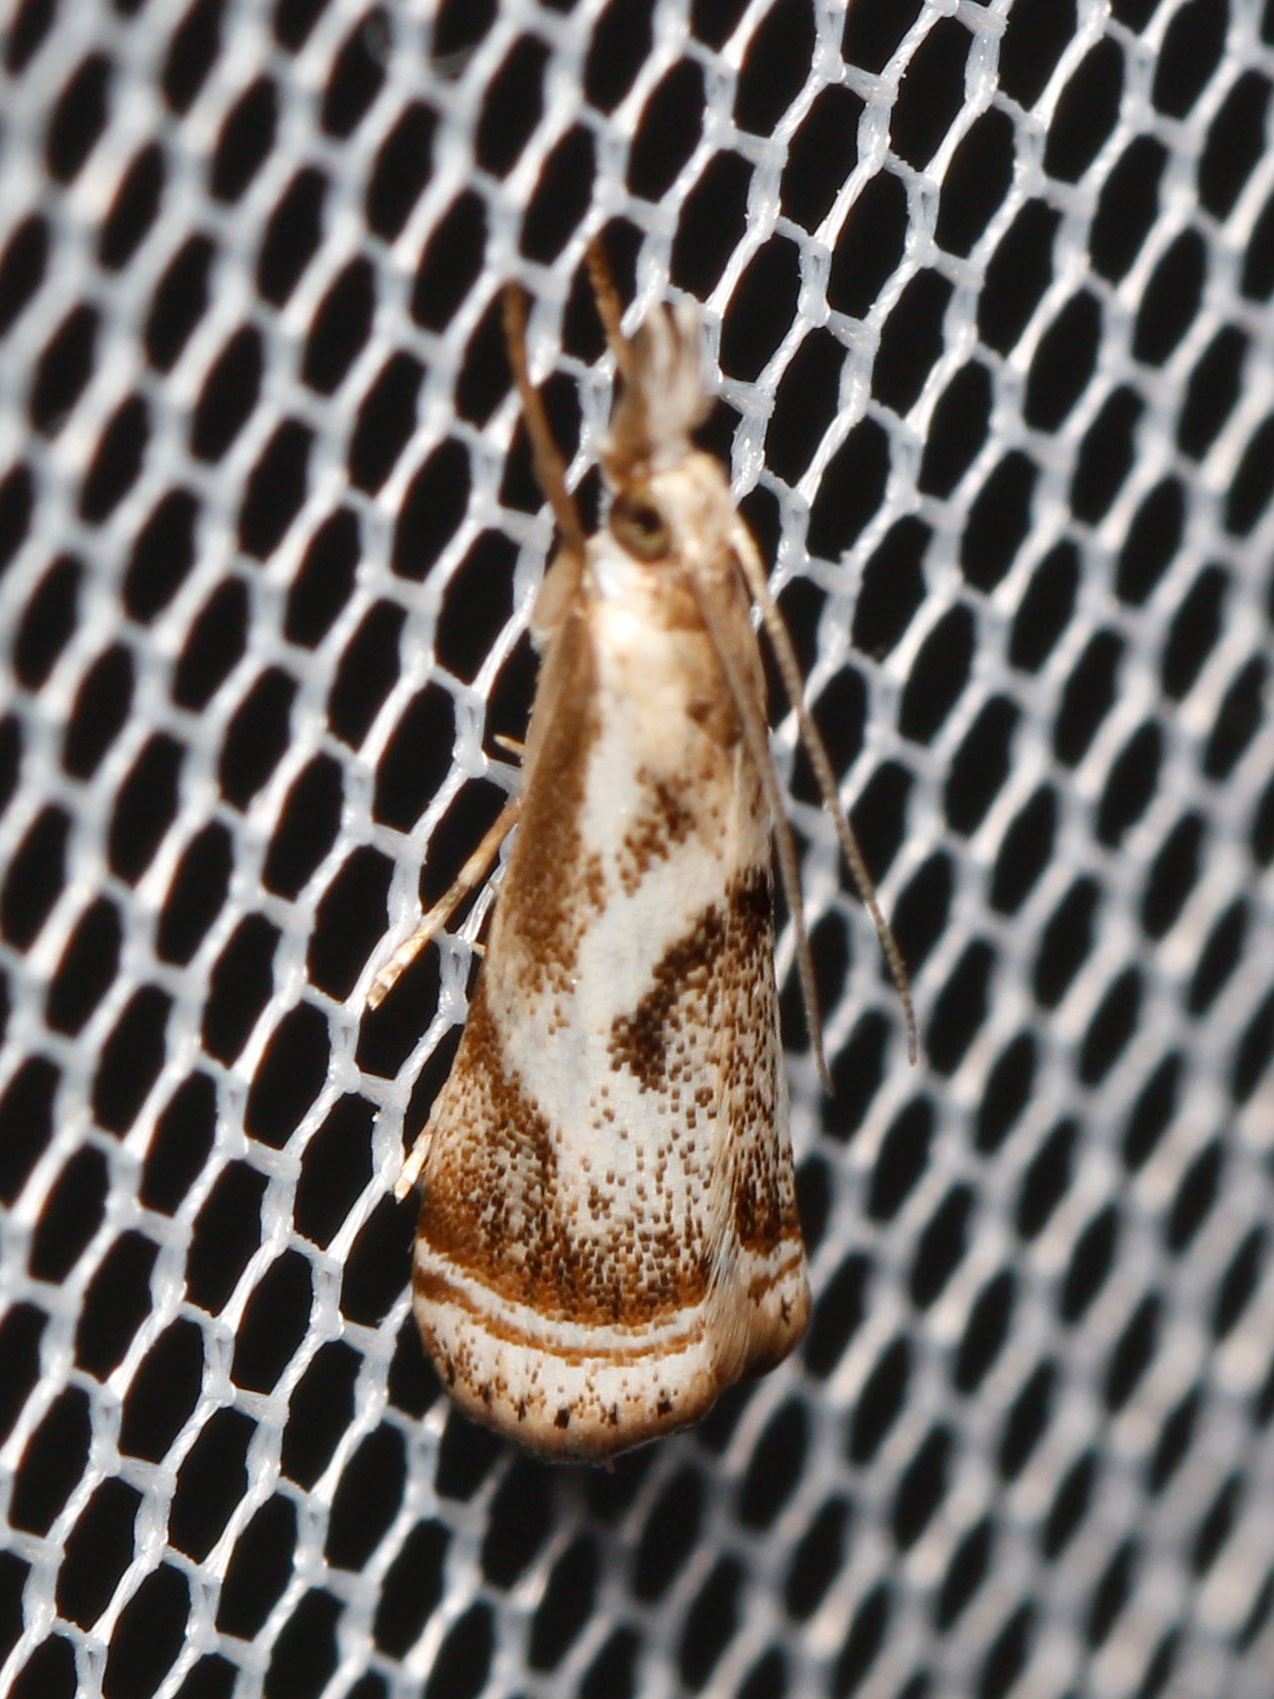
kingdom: Animalia
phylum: Arthropoda
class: Insecta
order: Lepidoptera
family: Crambidae
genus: Microcrambus
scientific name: Microcrambus elegans
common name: Elegant grass-veneer
